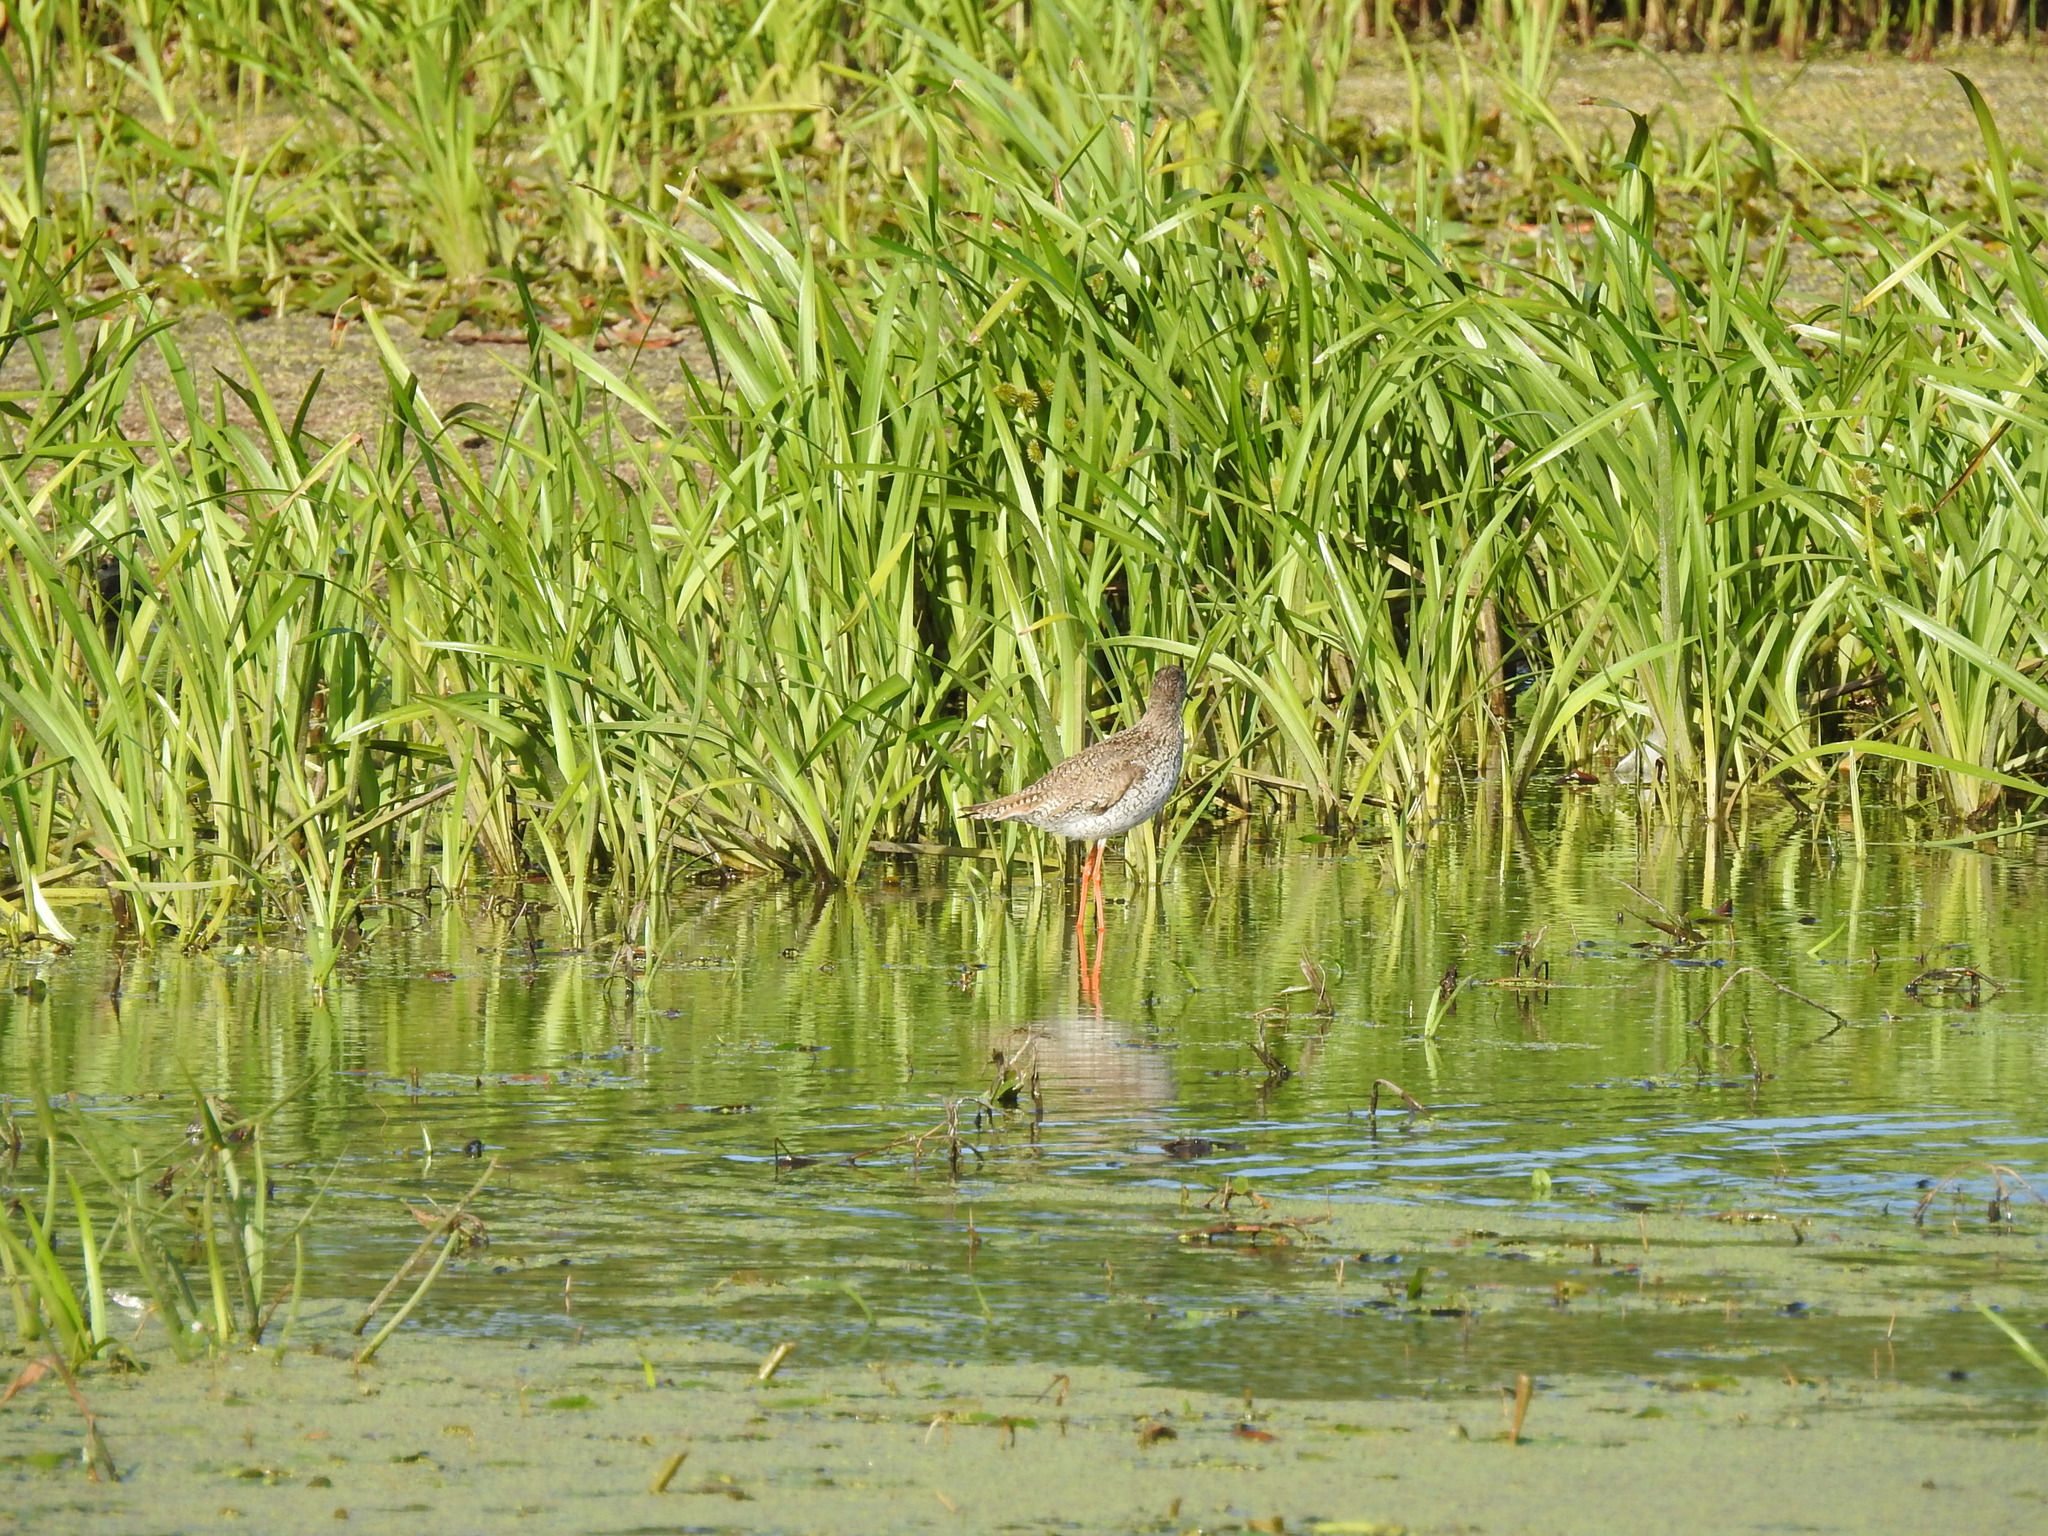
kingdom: Animalia
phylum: Chordata
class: Aves
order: Charadriiformes
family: Scolopacidae
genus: Tringa
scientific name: Tringa totanus
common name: Common redshank
